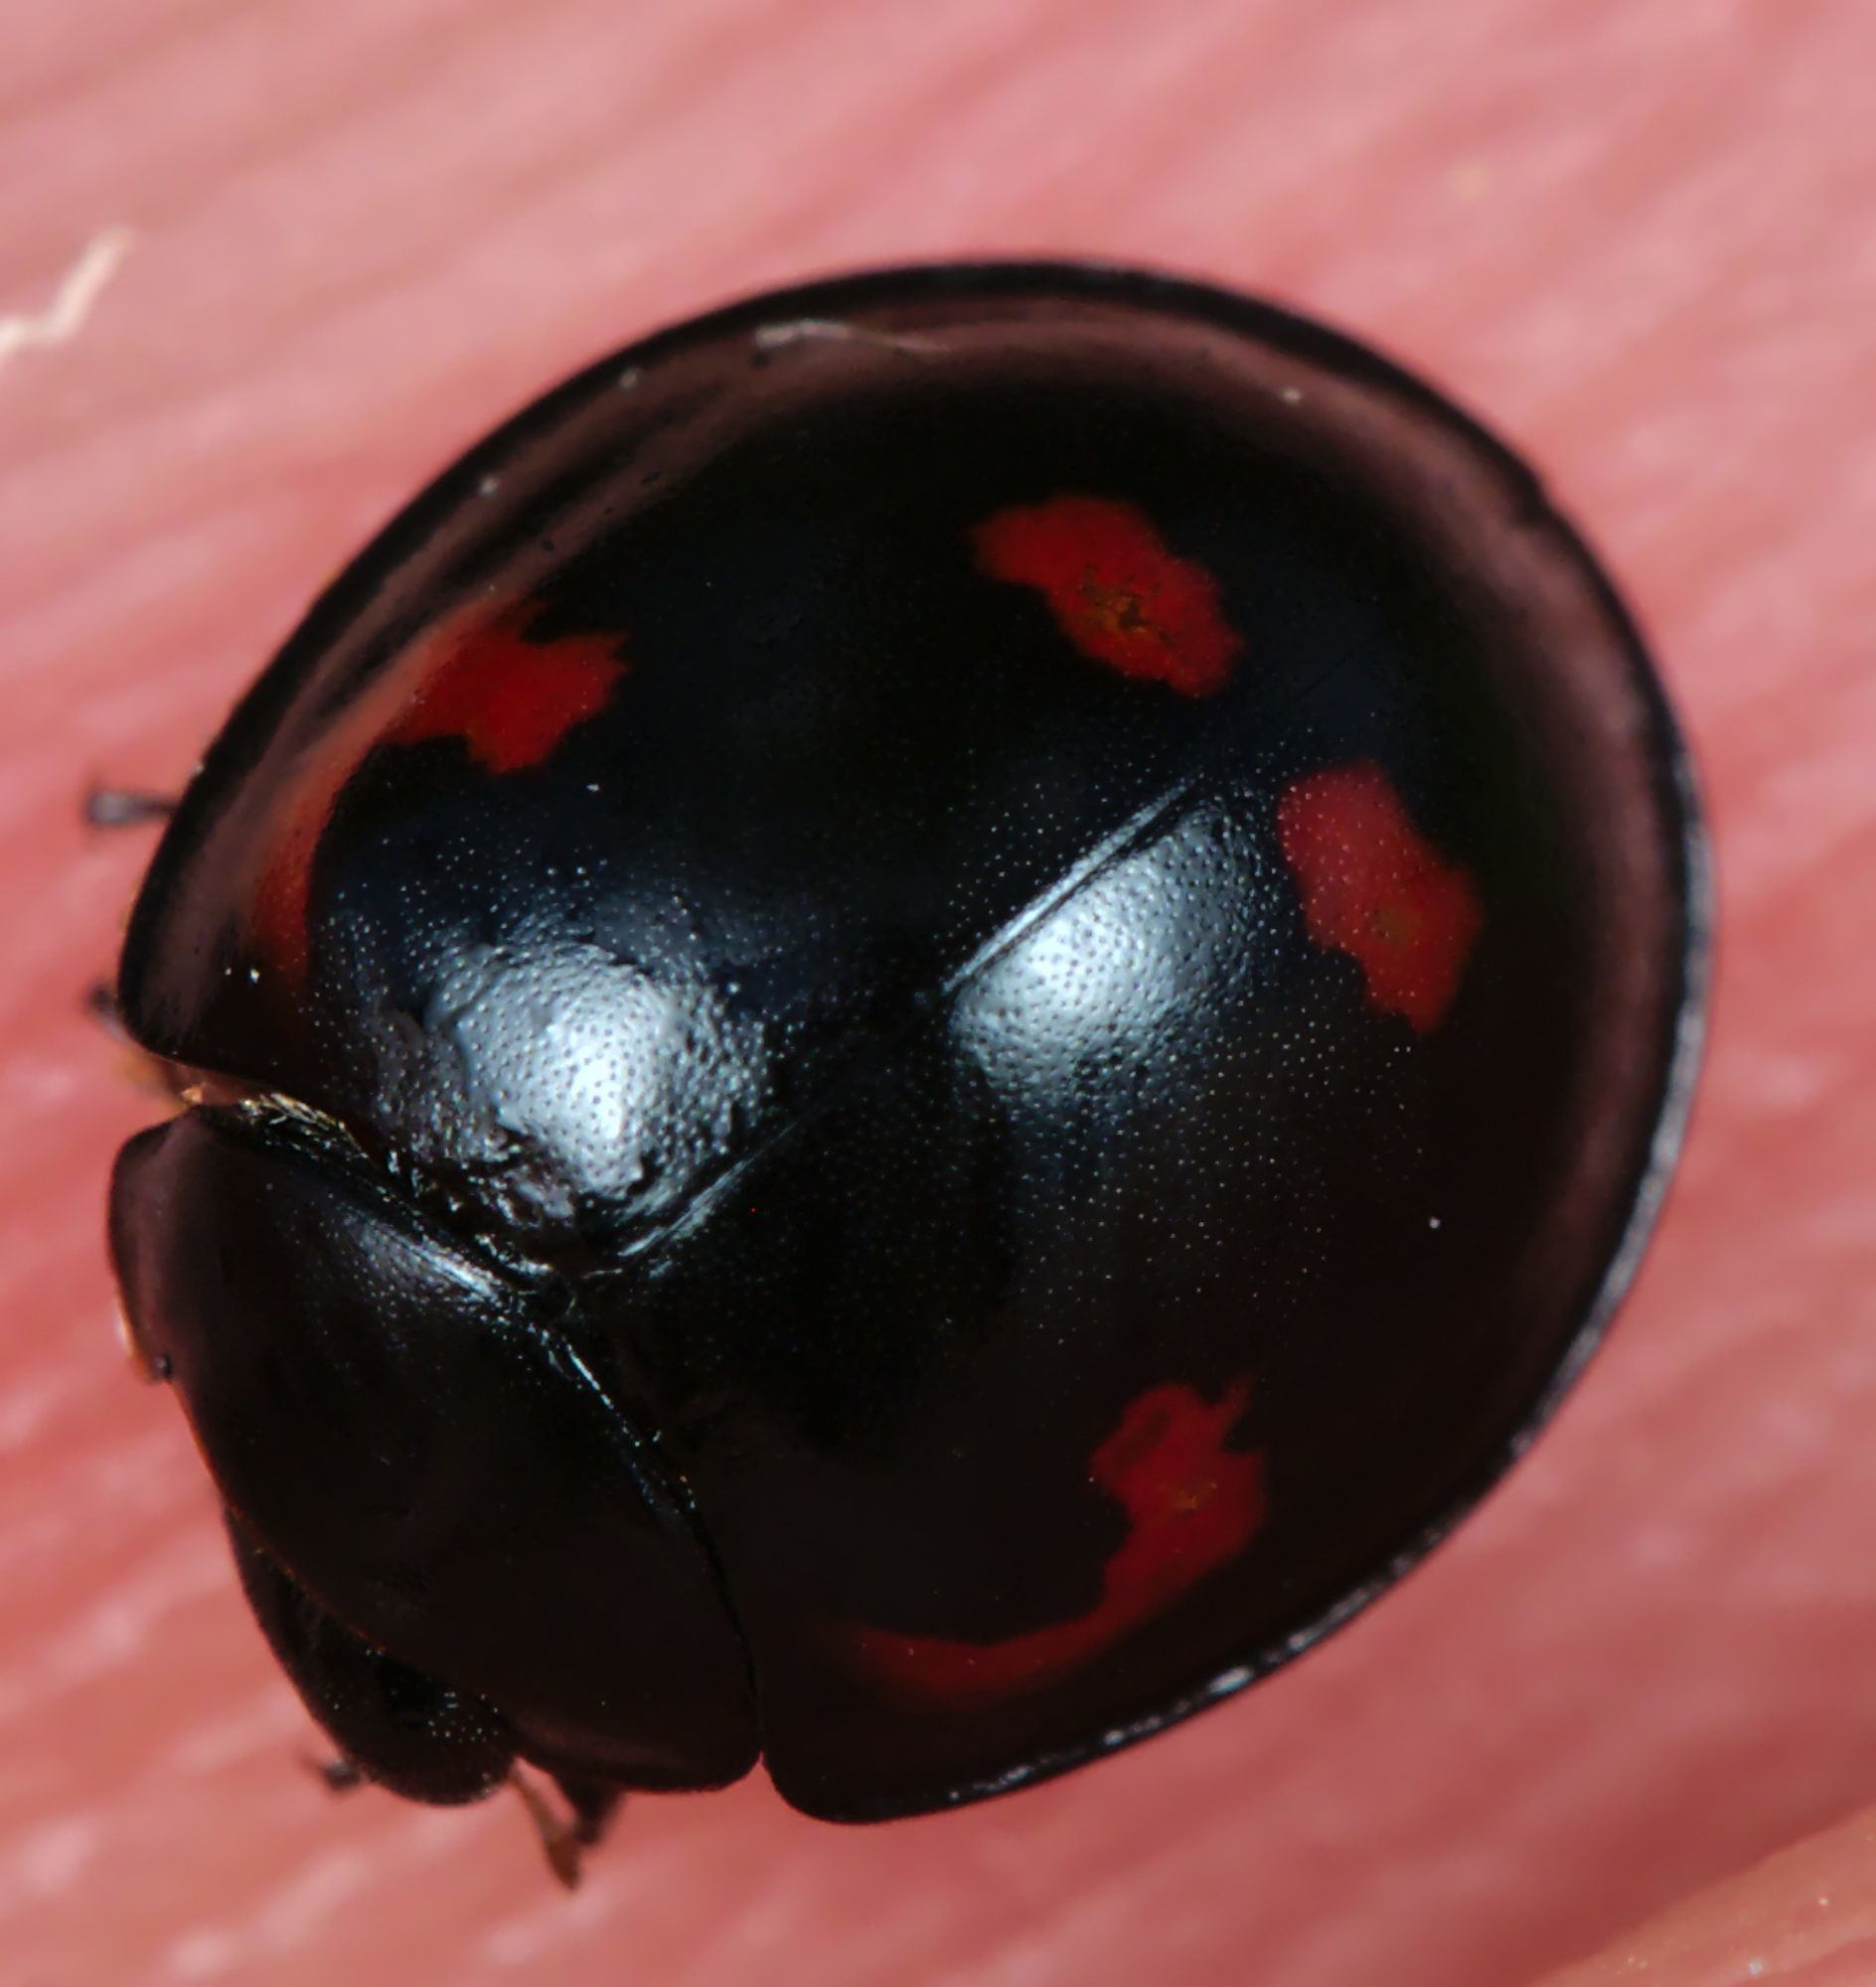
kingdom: Animalia
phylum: Arthropoda
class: Insecta
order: Coleoptera
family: Coccinellidae
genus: Brumus
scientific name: Brumus quadripustulatus
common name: Ladybird beetle
